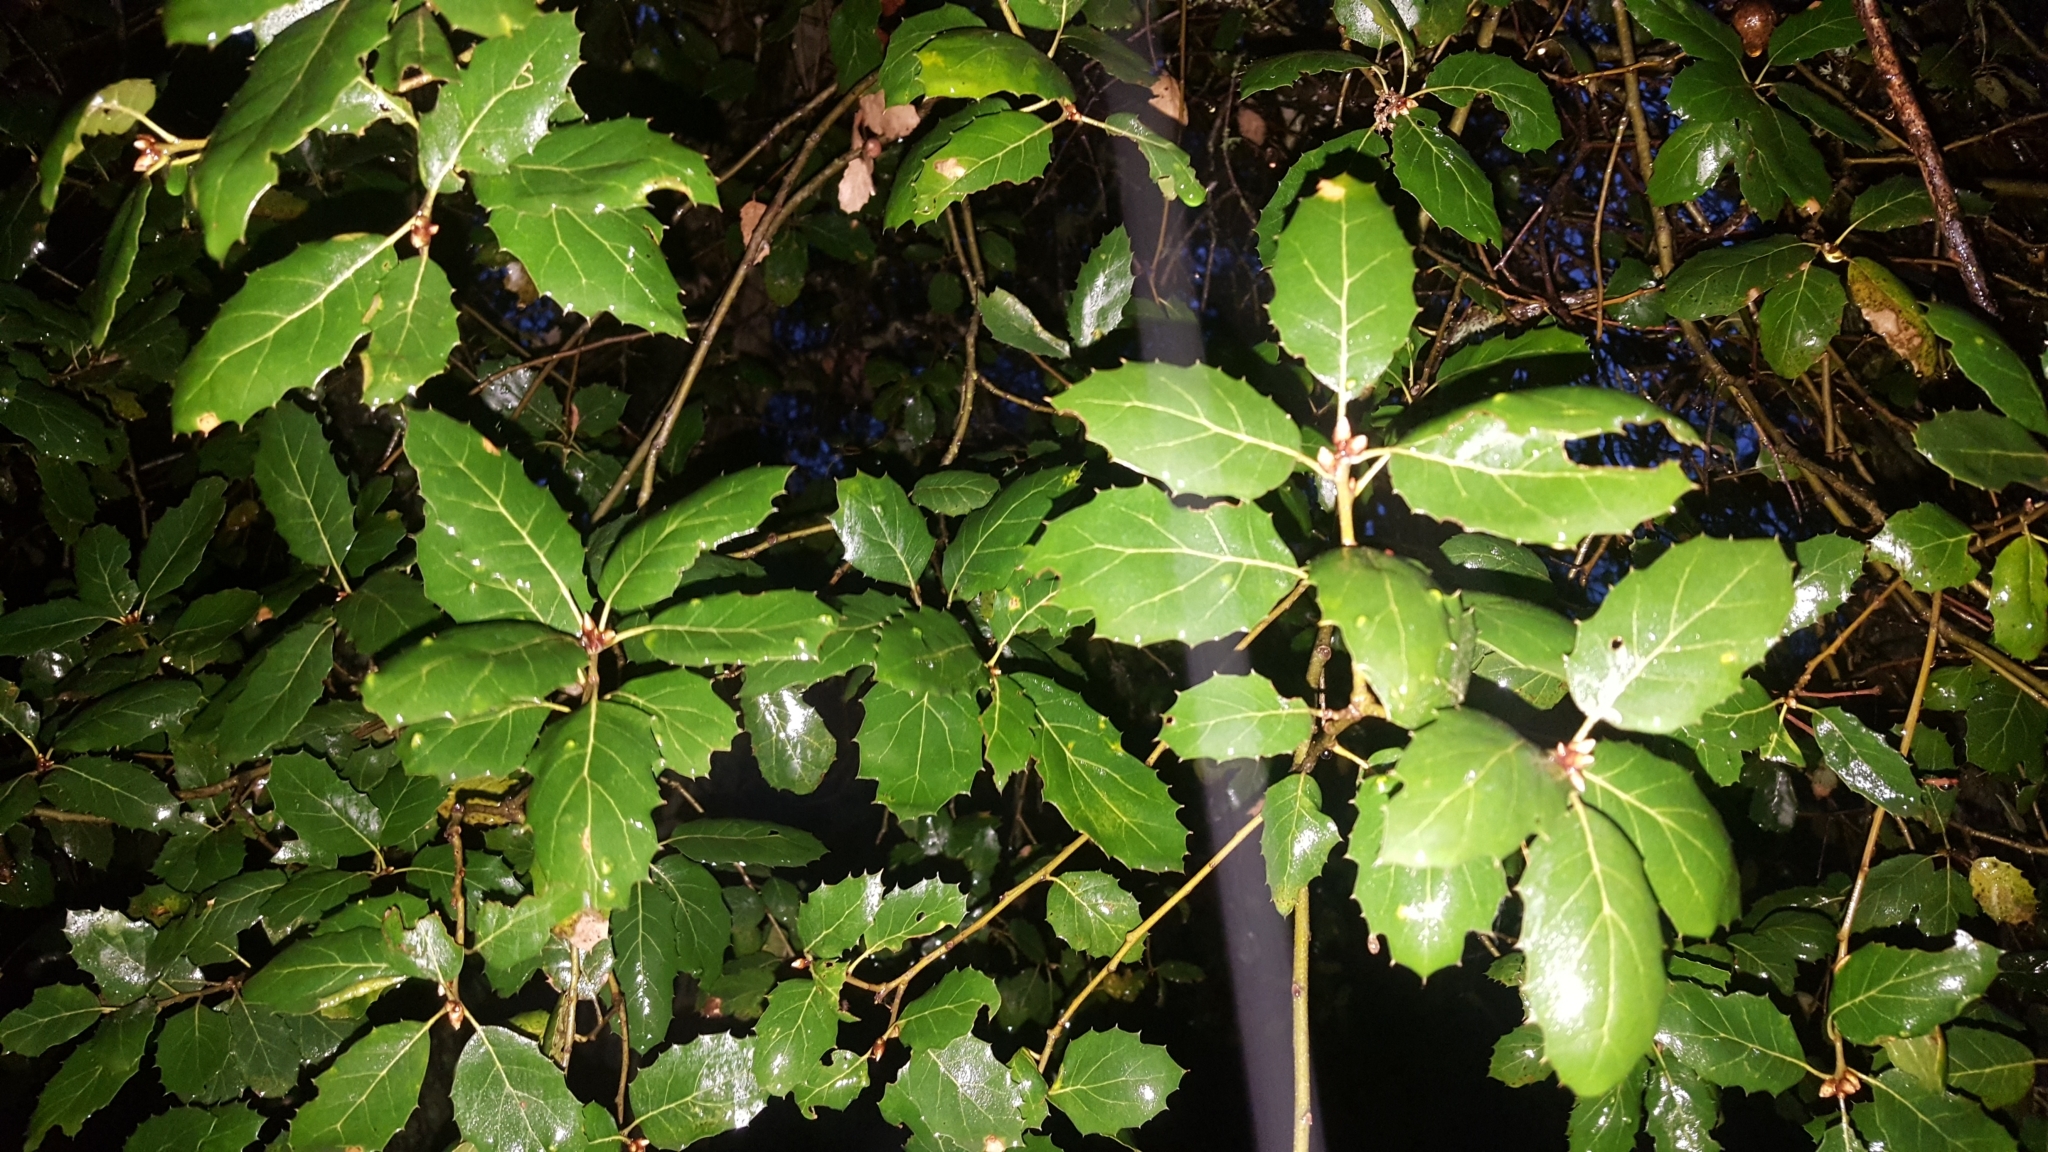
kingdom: Plantae
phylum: Tracheophyta
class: Magnoliopsida
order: Fagales
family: Fagaceae
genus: Quercus
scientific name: Quercus agrifolia
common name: California live oak
